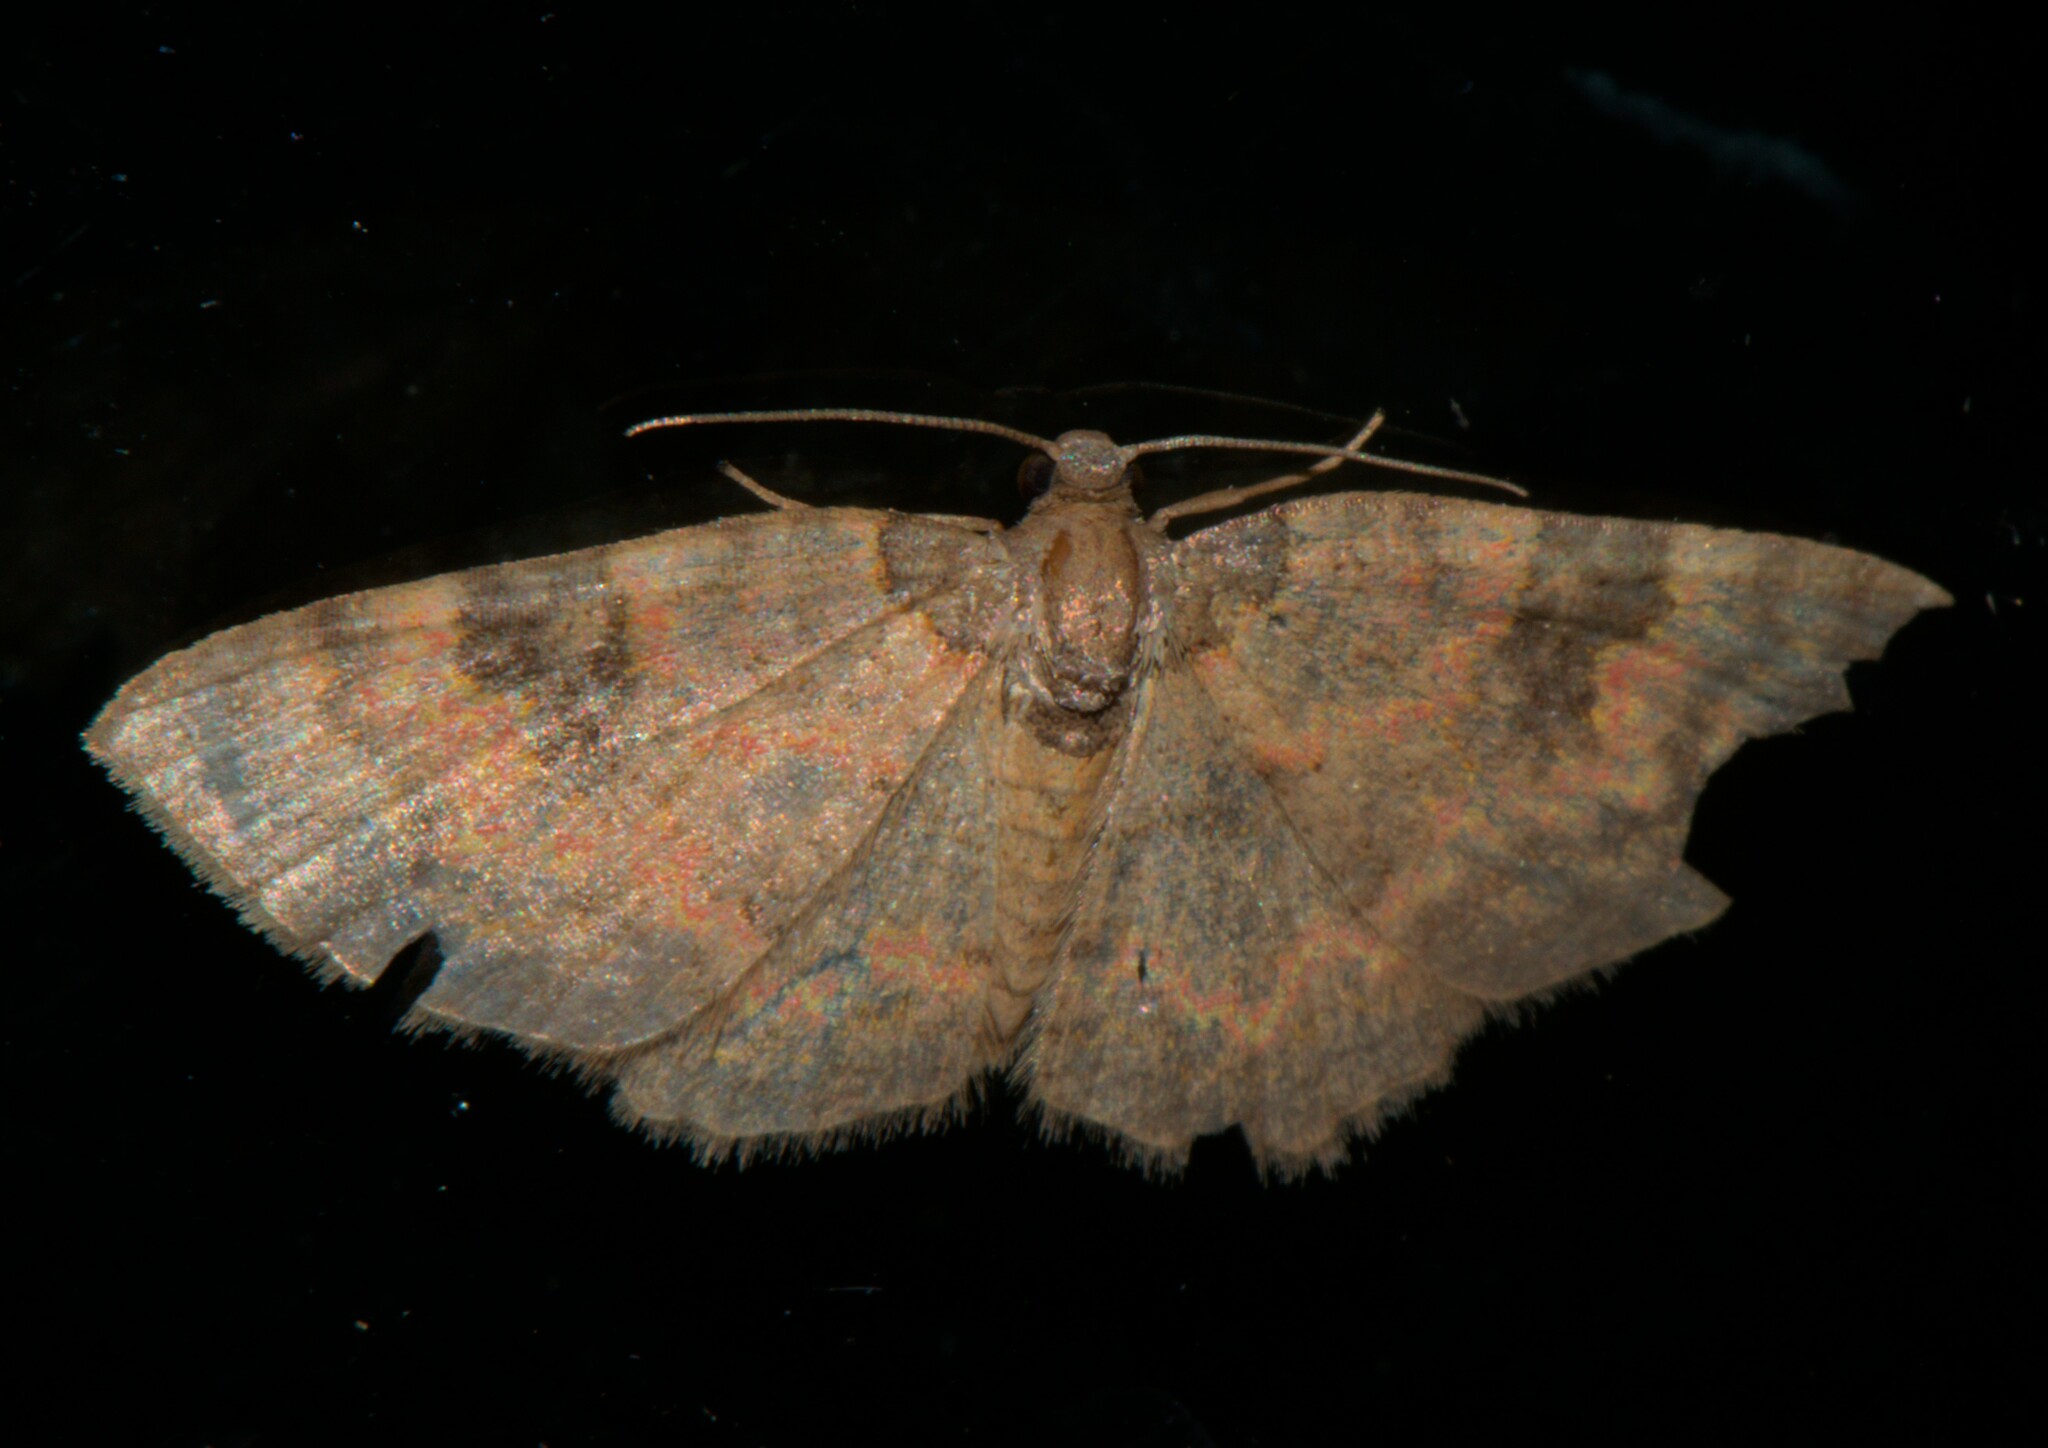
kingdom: Animalia
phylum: Arthropoda
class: Insecta
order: Lepidoptera
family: Geometridae
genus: Hydrelia
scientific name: Hydrelia bicolorata
